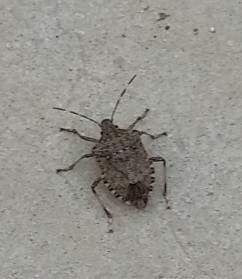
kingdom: Animalia
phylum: Arthropoda
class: Insecta
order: Hemiptera
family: Pentatomidae
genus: Halyomorpha
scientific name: Halyomorpha halys
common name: Brown marmorated stink bug
